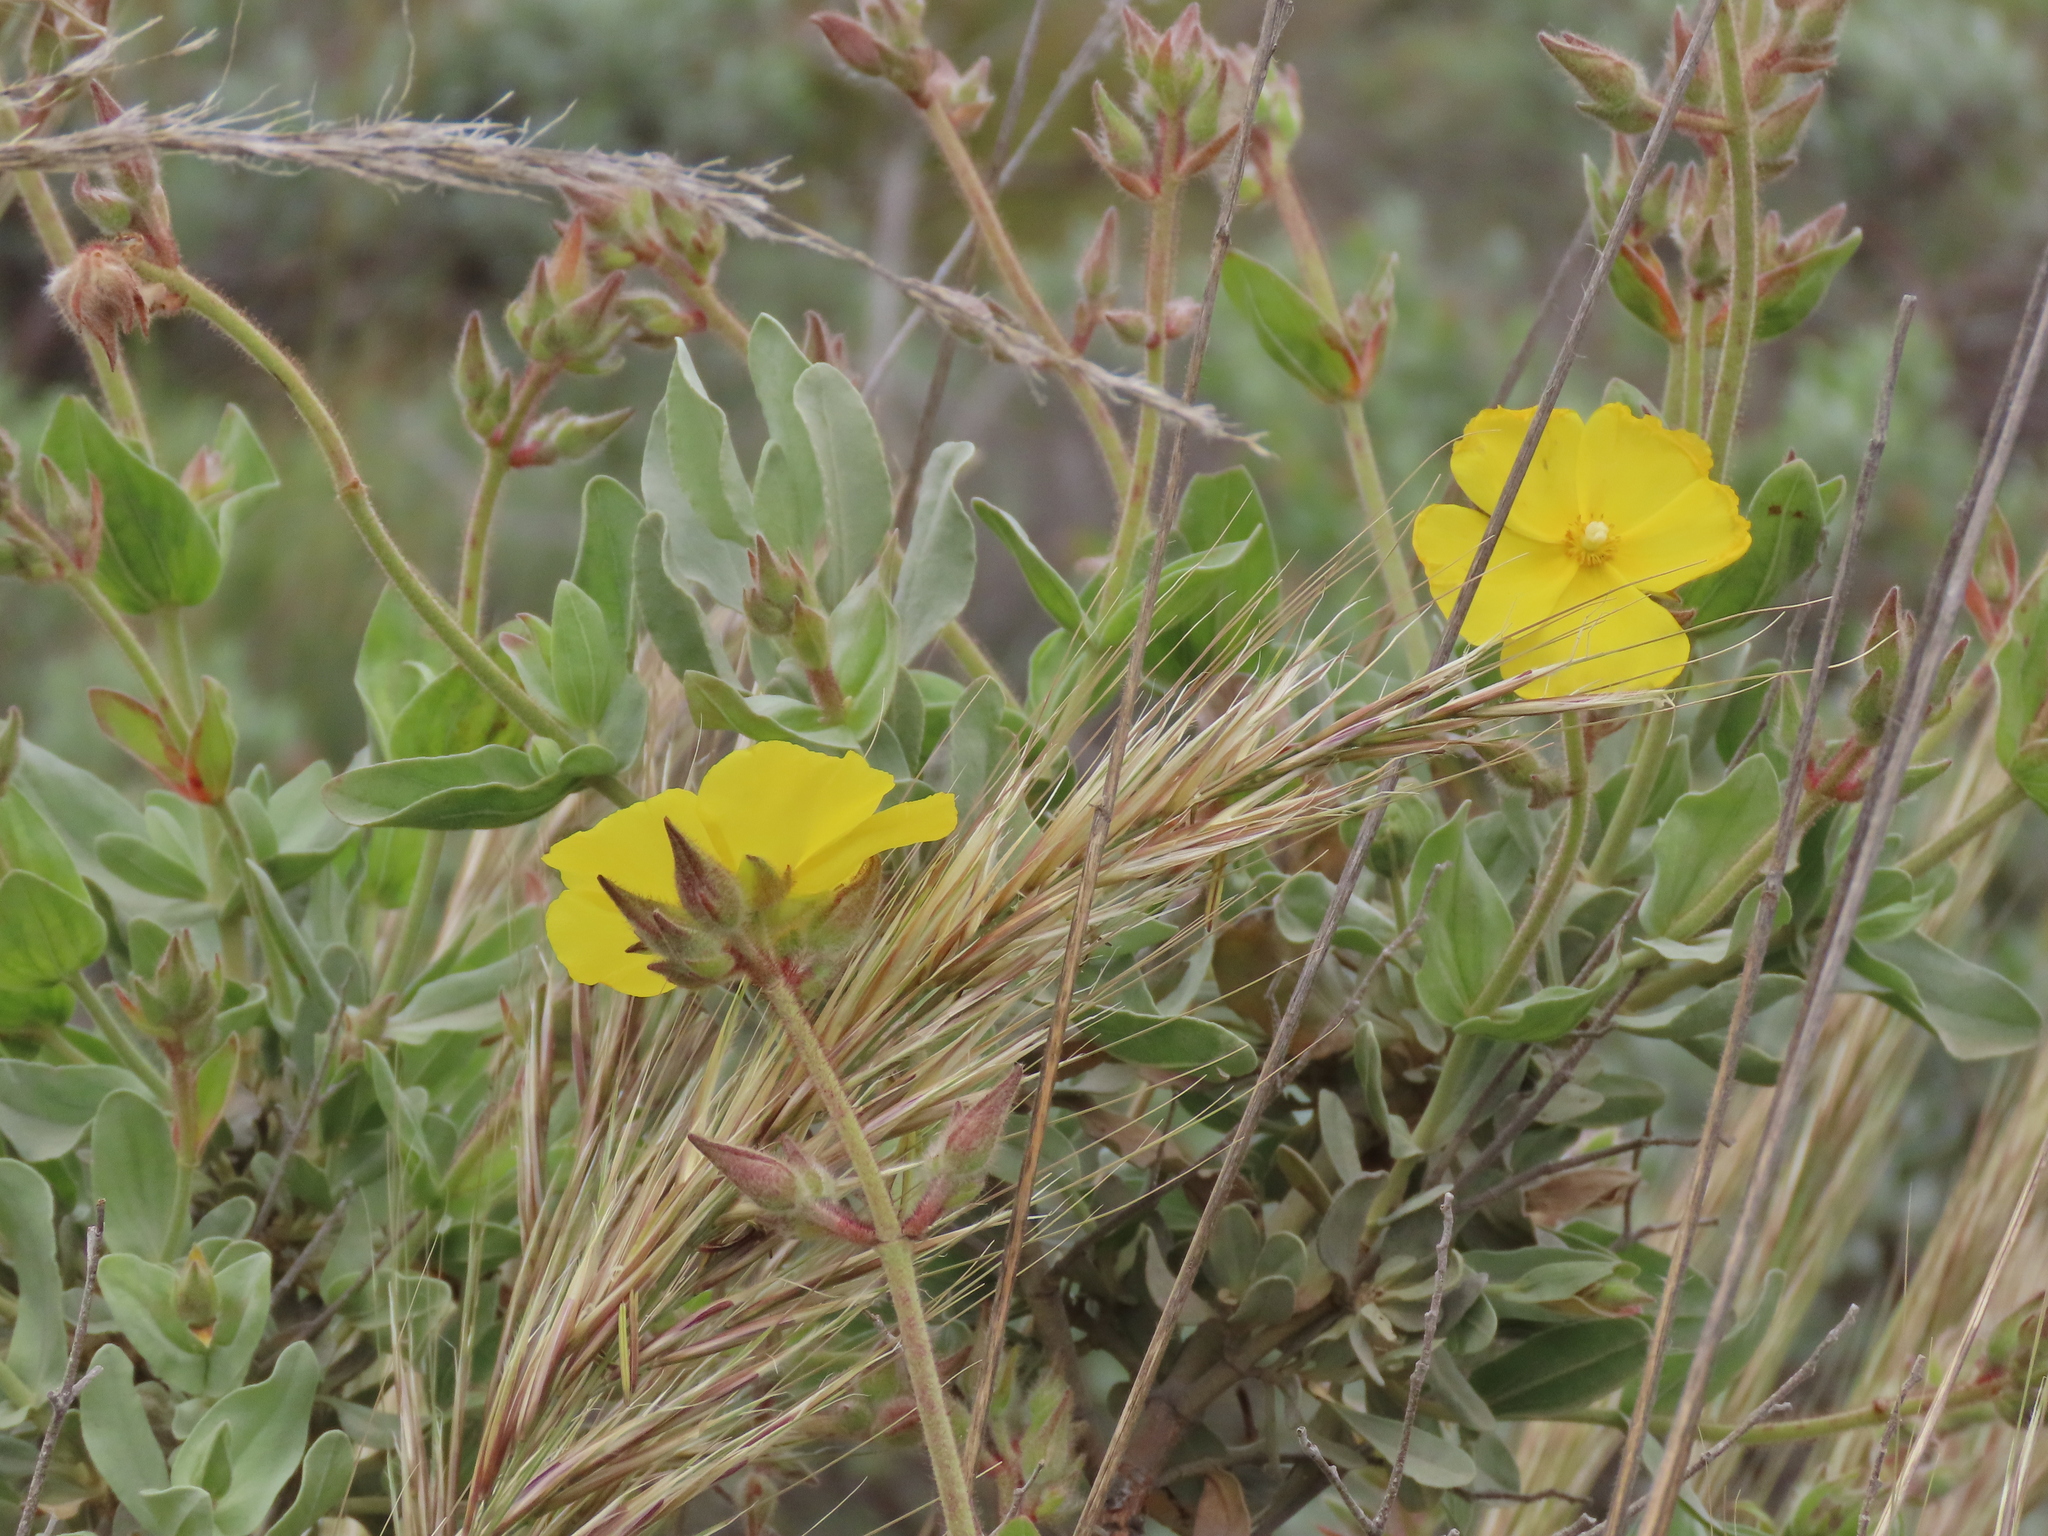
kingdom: Plantae
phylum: Tracheophyta
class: Magnoliopsida
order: Malvales
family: Cistaceae
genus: Halimium
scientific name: Halimium atriplicifolium
